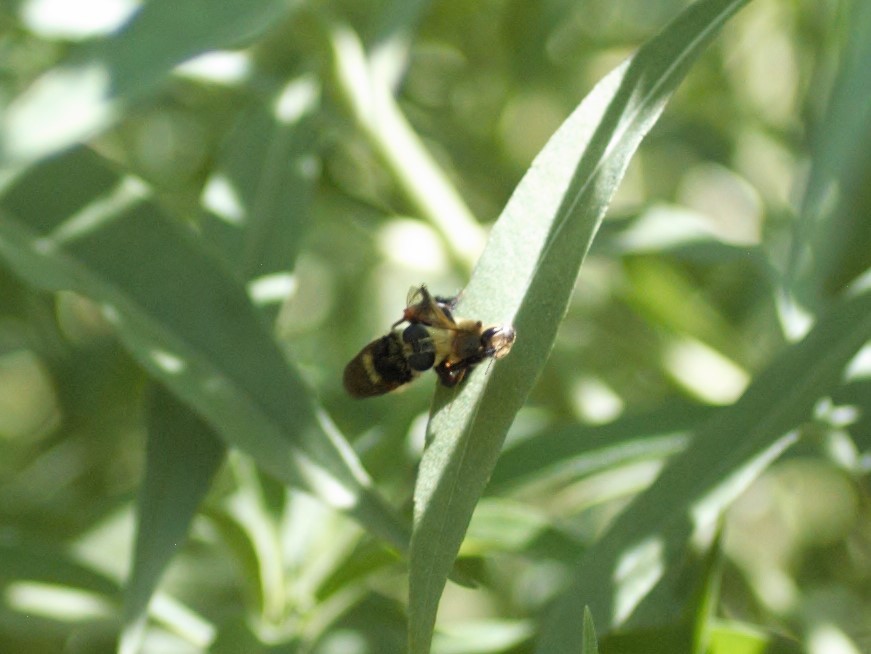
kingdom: Animalia
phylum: Arthropoda
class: Insecta
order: Diptera
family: Asilidae
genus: Mallophora
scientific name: Mallophora fautrix
